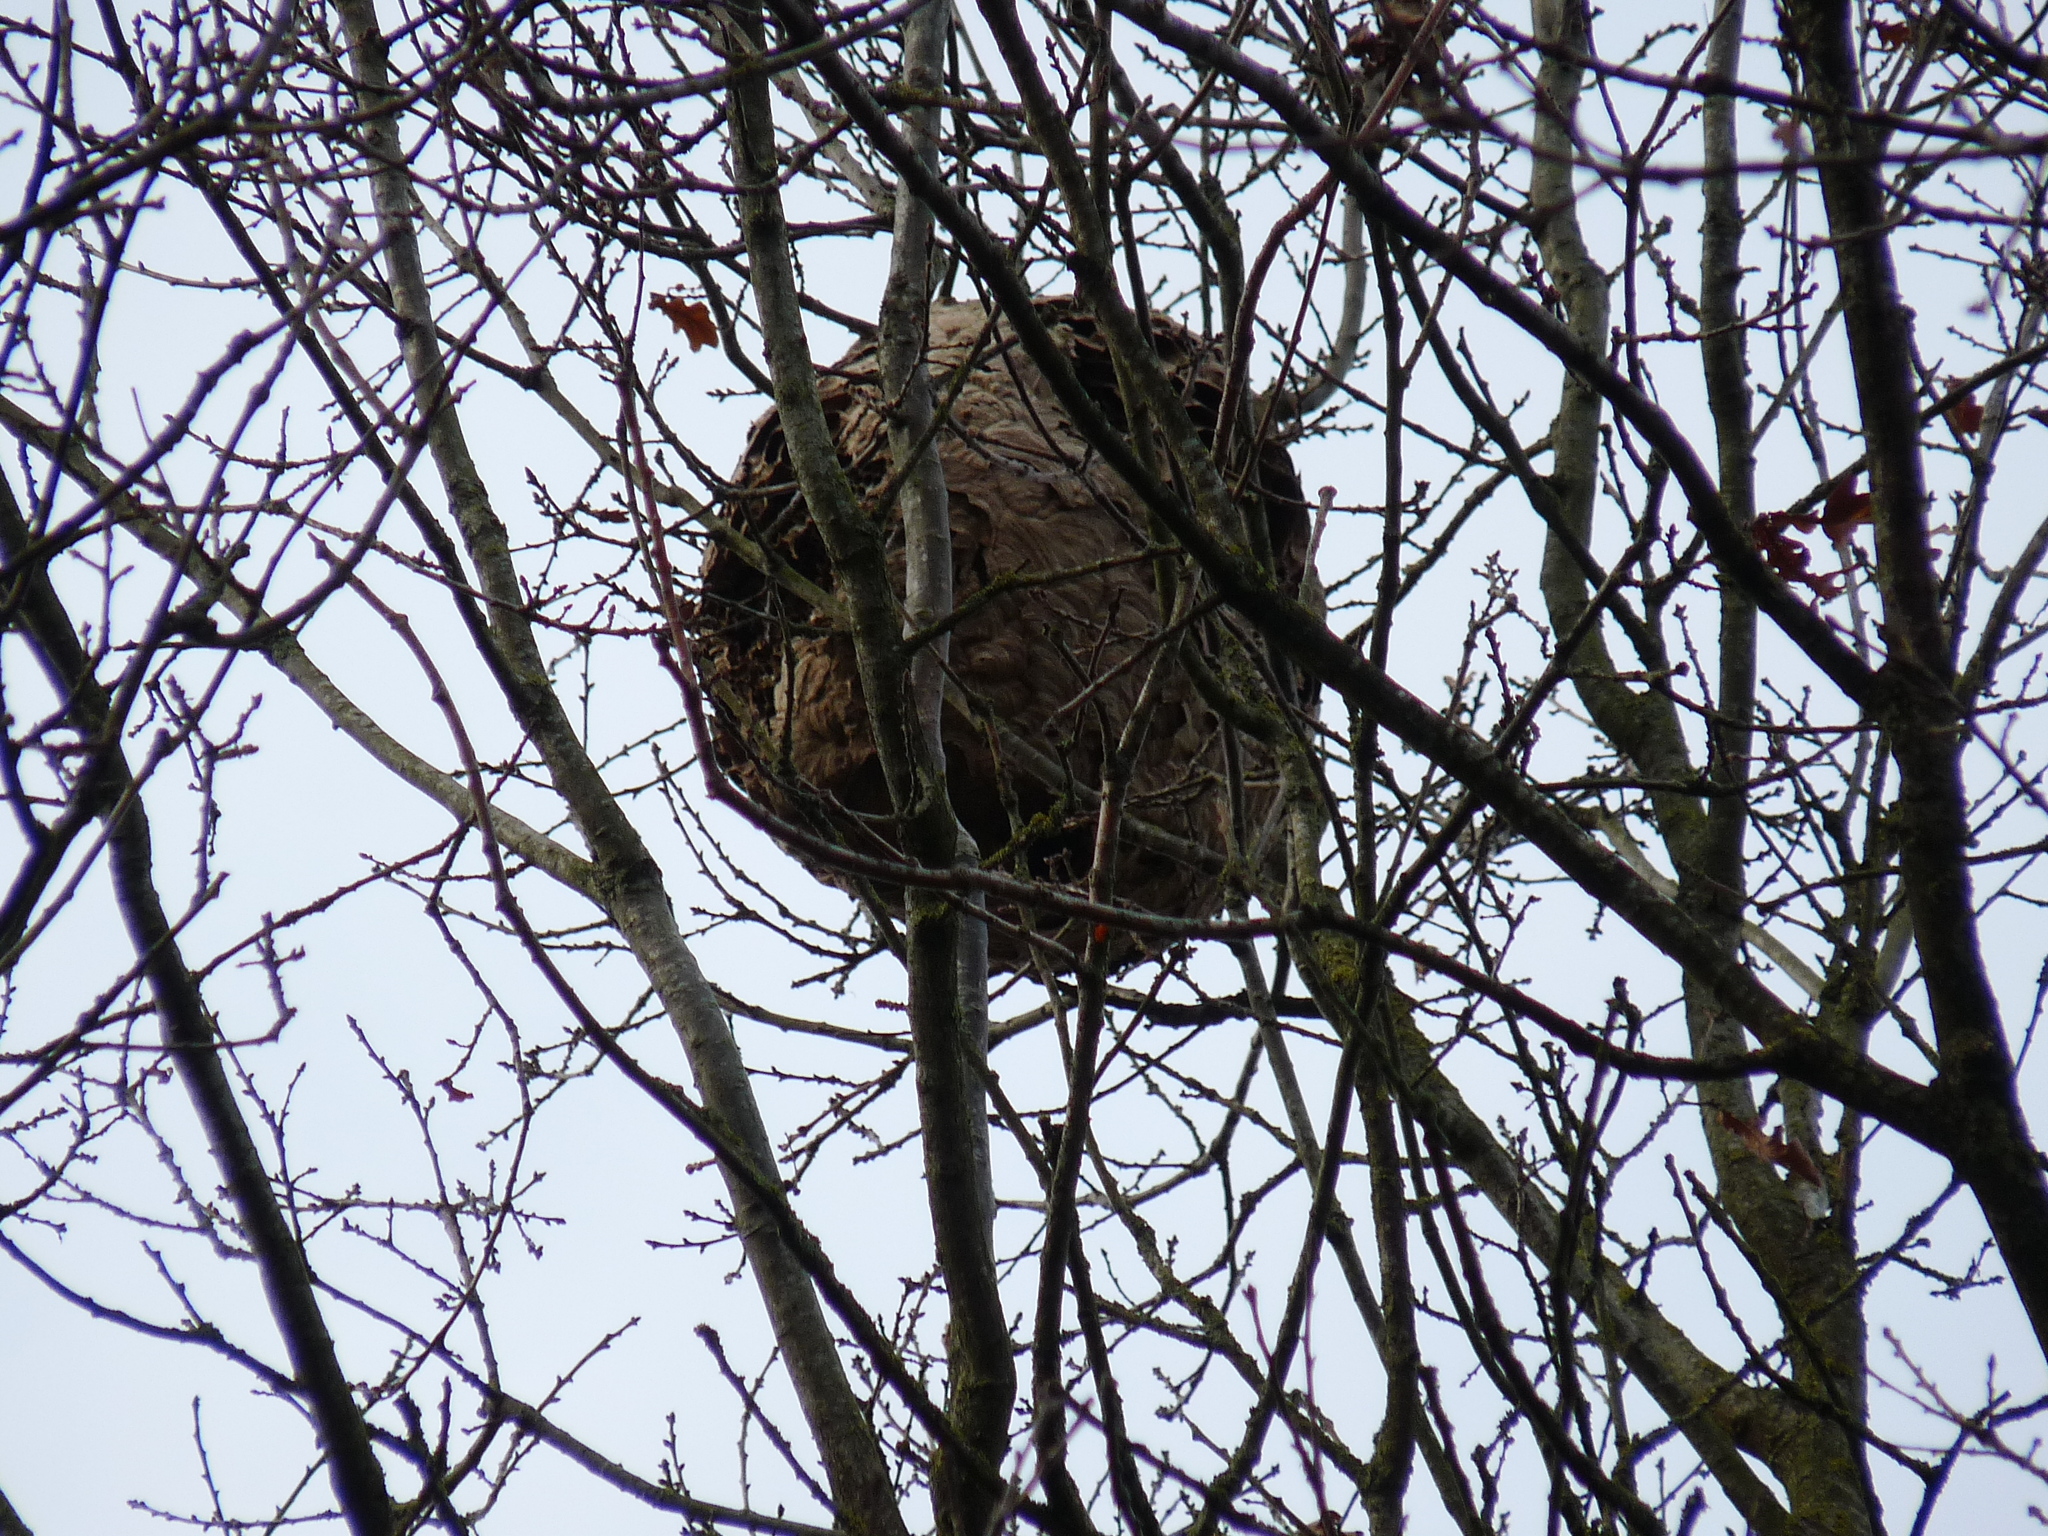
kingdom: Animalia
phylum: Arthropoda
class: Insecta
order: Hymenoptera
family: Vespidae
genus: Vespa
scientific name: Vespa velutina
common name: Asian hornet
